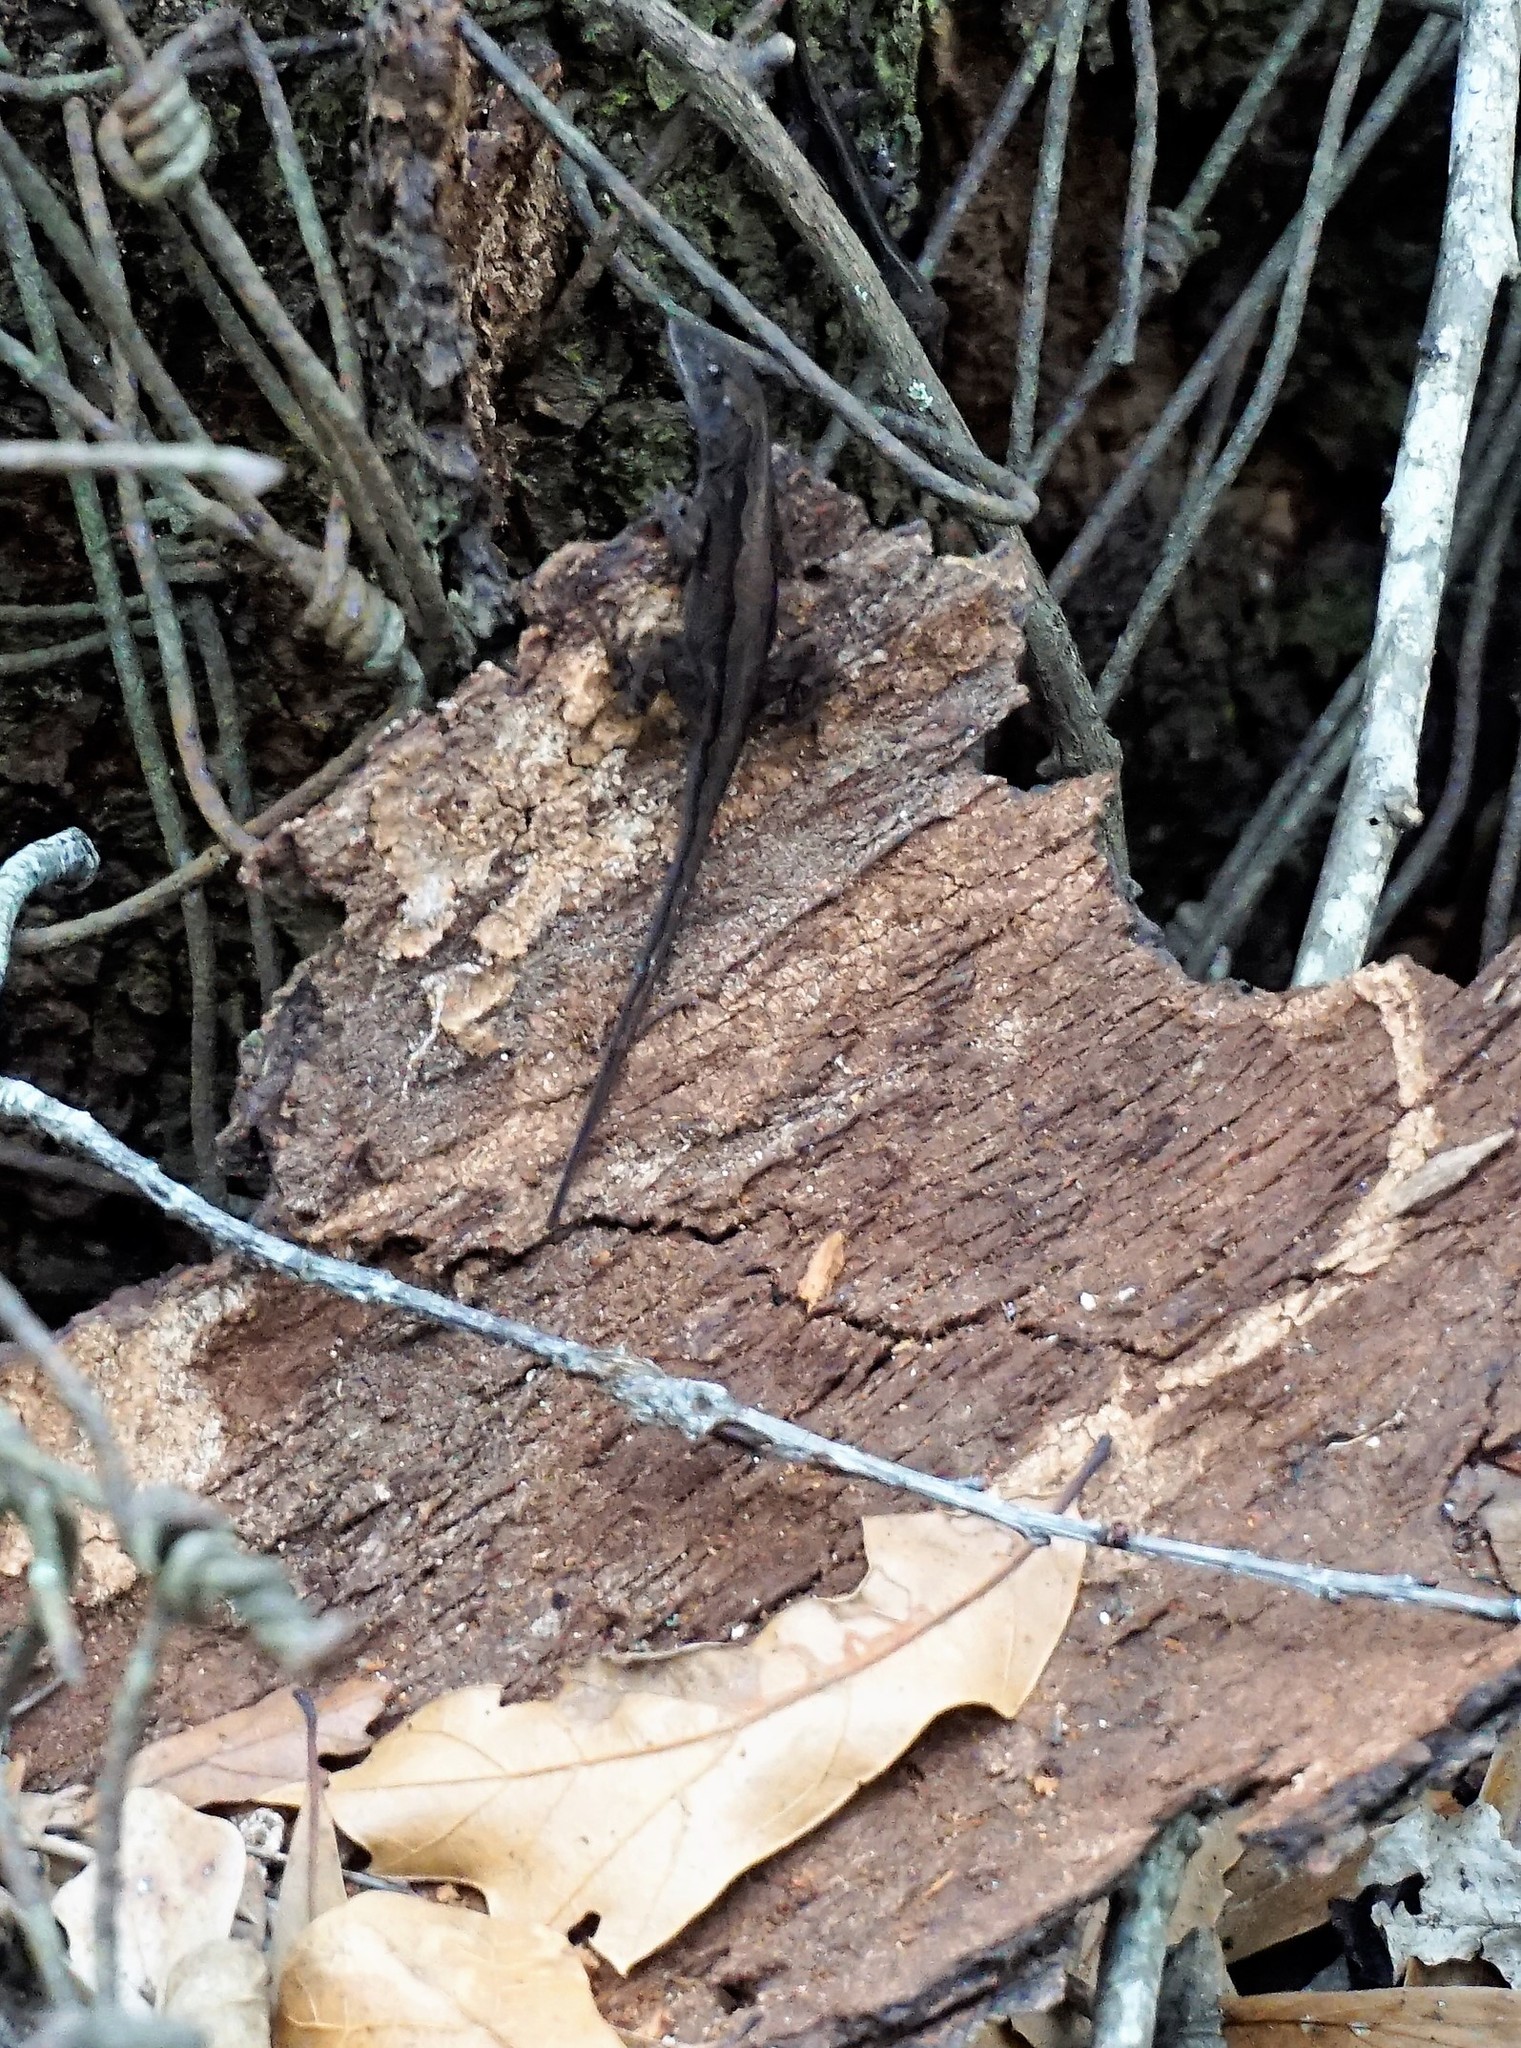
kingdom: Animalia
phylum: Chordata
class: Squamata
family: Dactyloidae
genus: Anolis
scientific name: Anolis sagrei
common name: Brown anole
